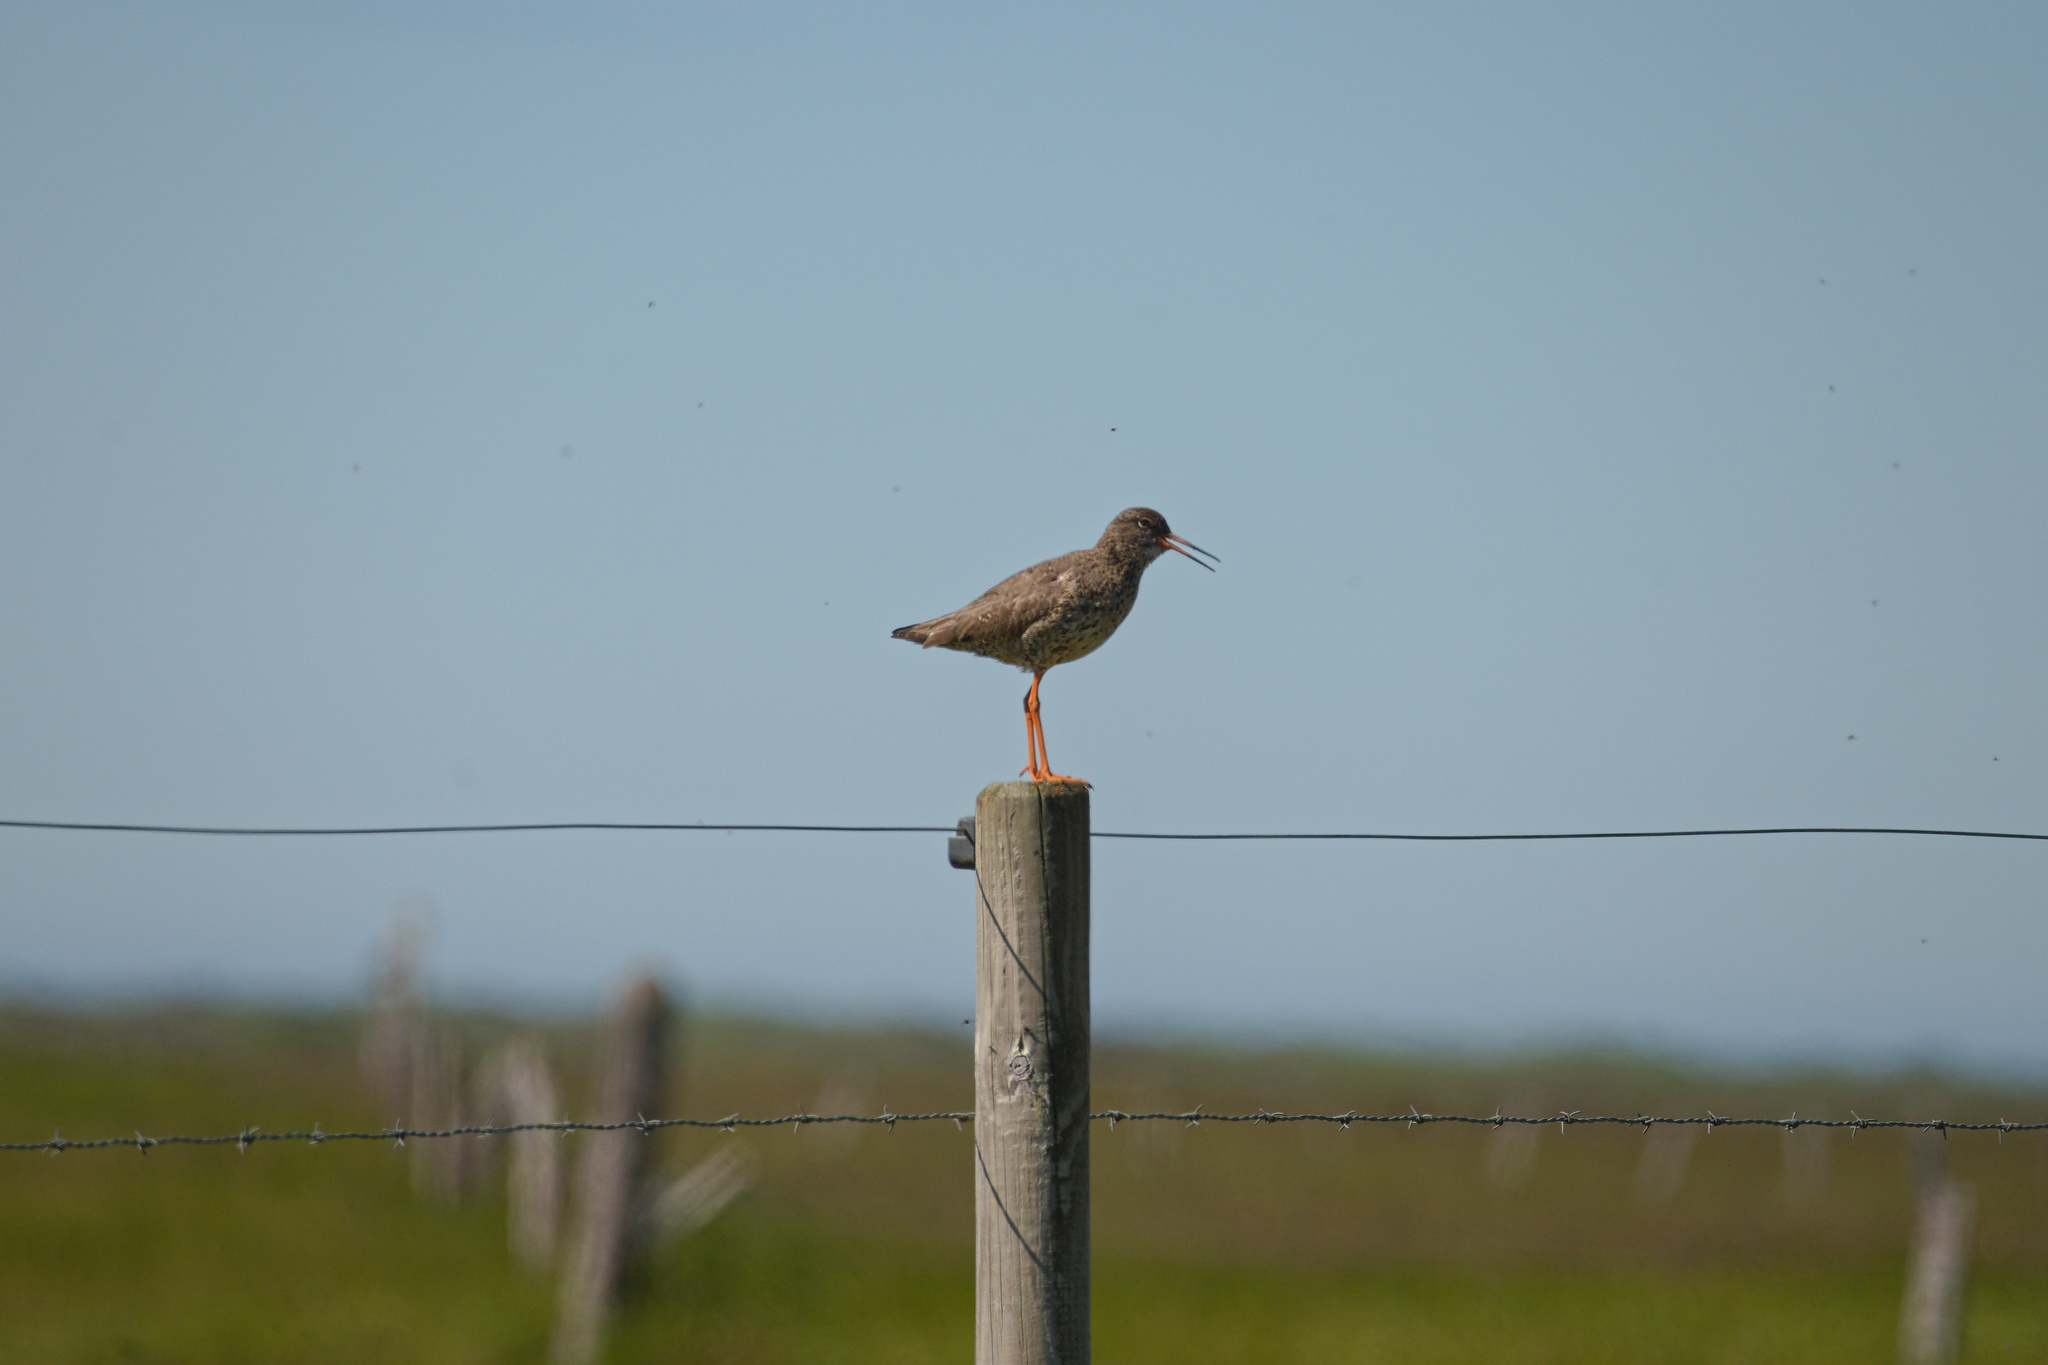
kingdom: Animalia
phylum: Chordata
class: Aves
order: Charadriiformes
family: Scolopacidae
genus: Tringa
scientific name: Tringa totanus
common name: Common redshank
